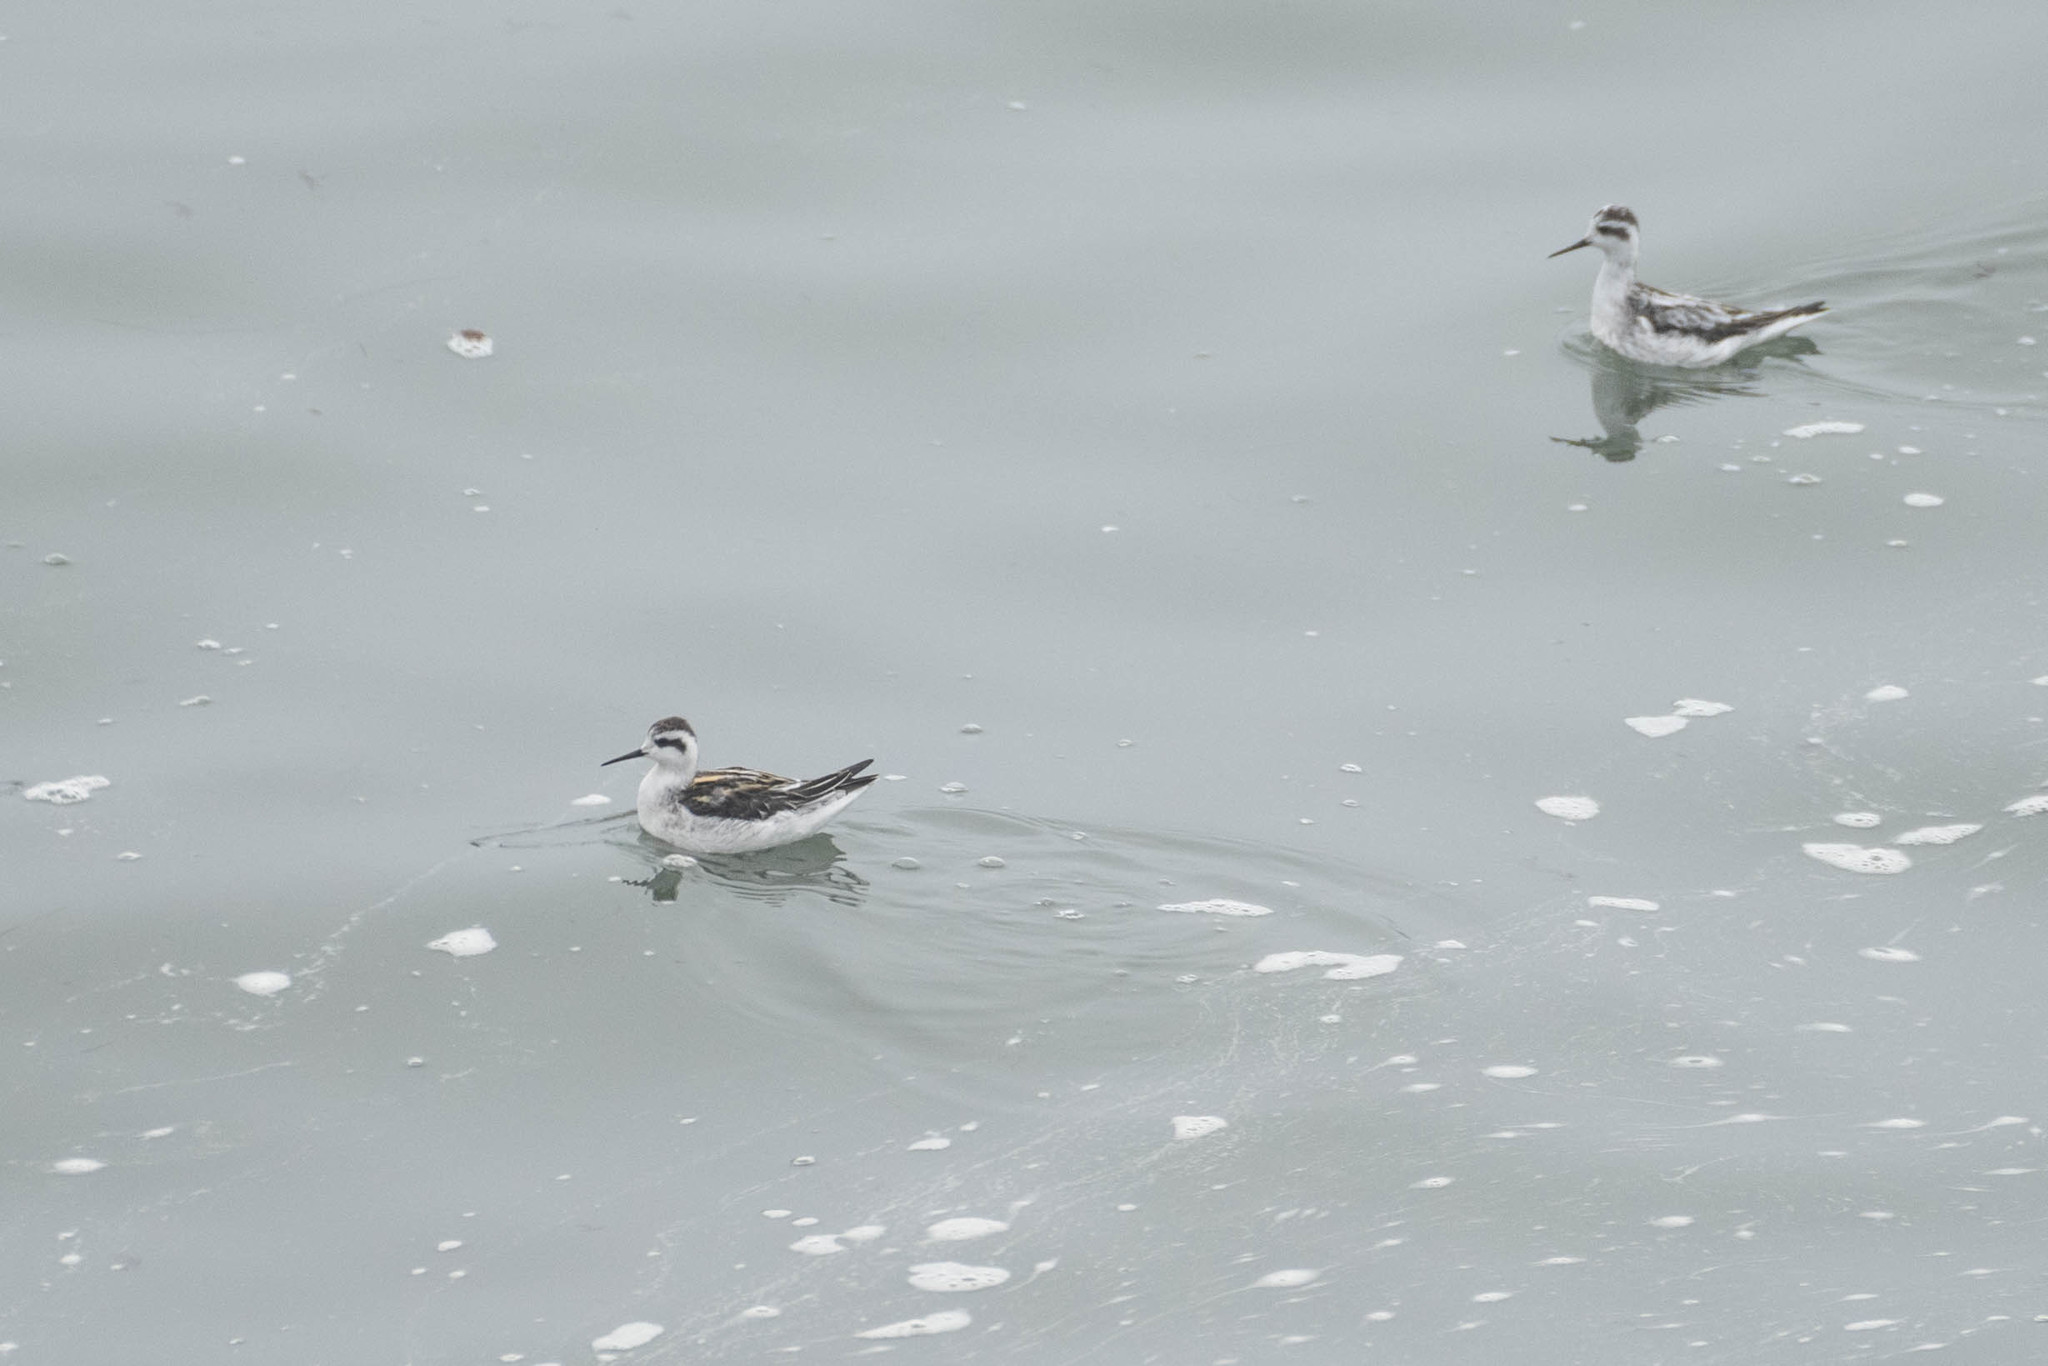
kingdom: Animalia
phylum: Chordata
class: Aves
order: Charadriiformes
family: Scolopacidae
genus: Phalaropus
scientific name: Phalaropus lobatus
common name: Red-necked phalarope
